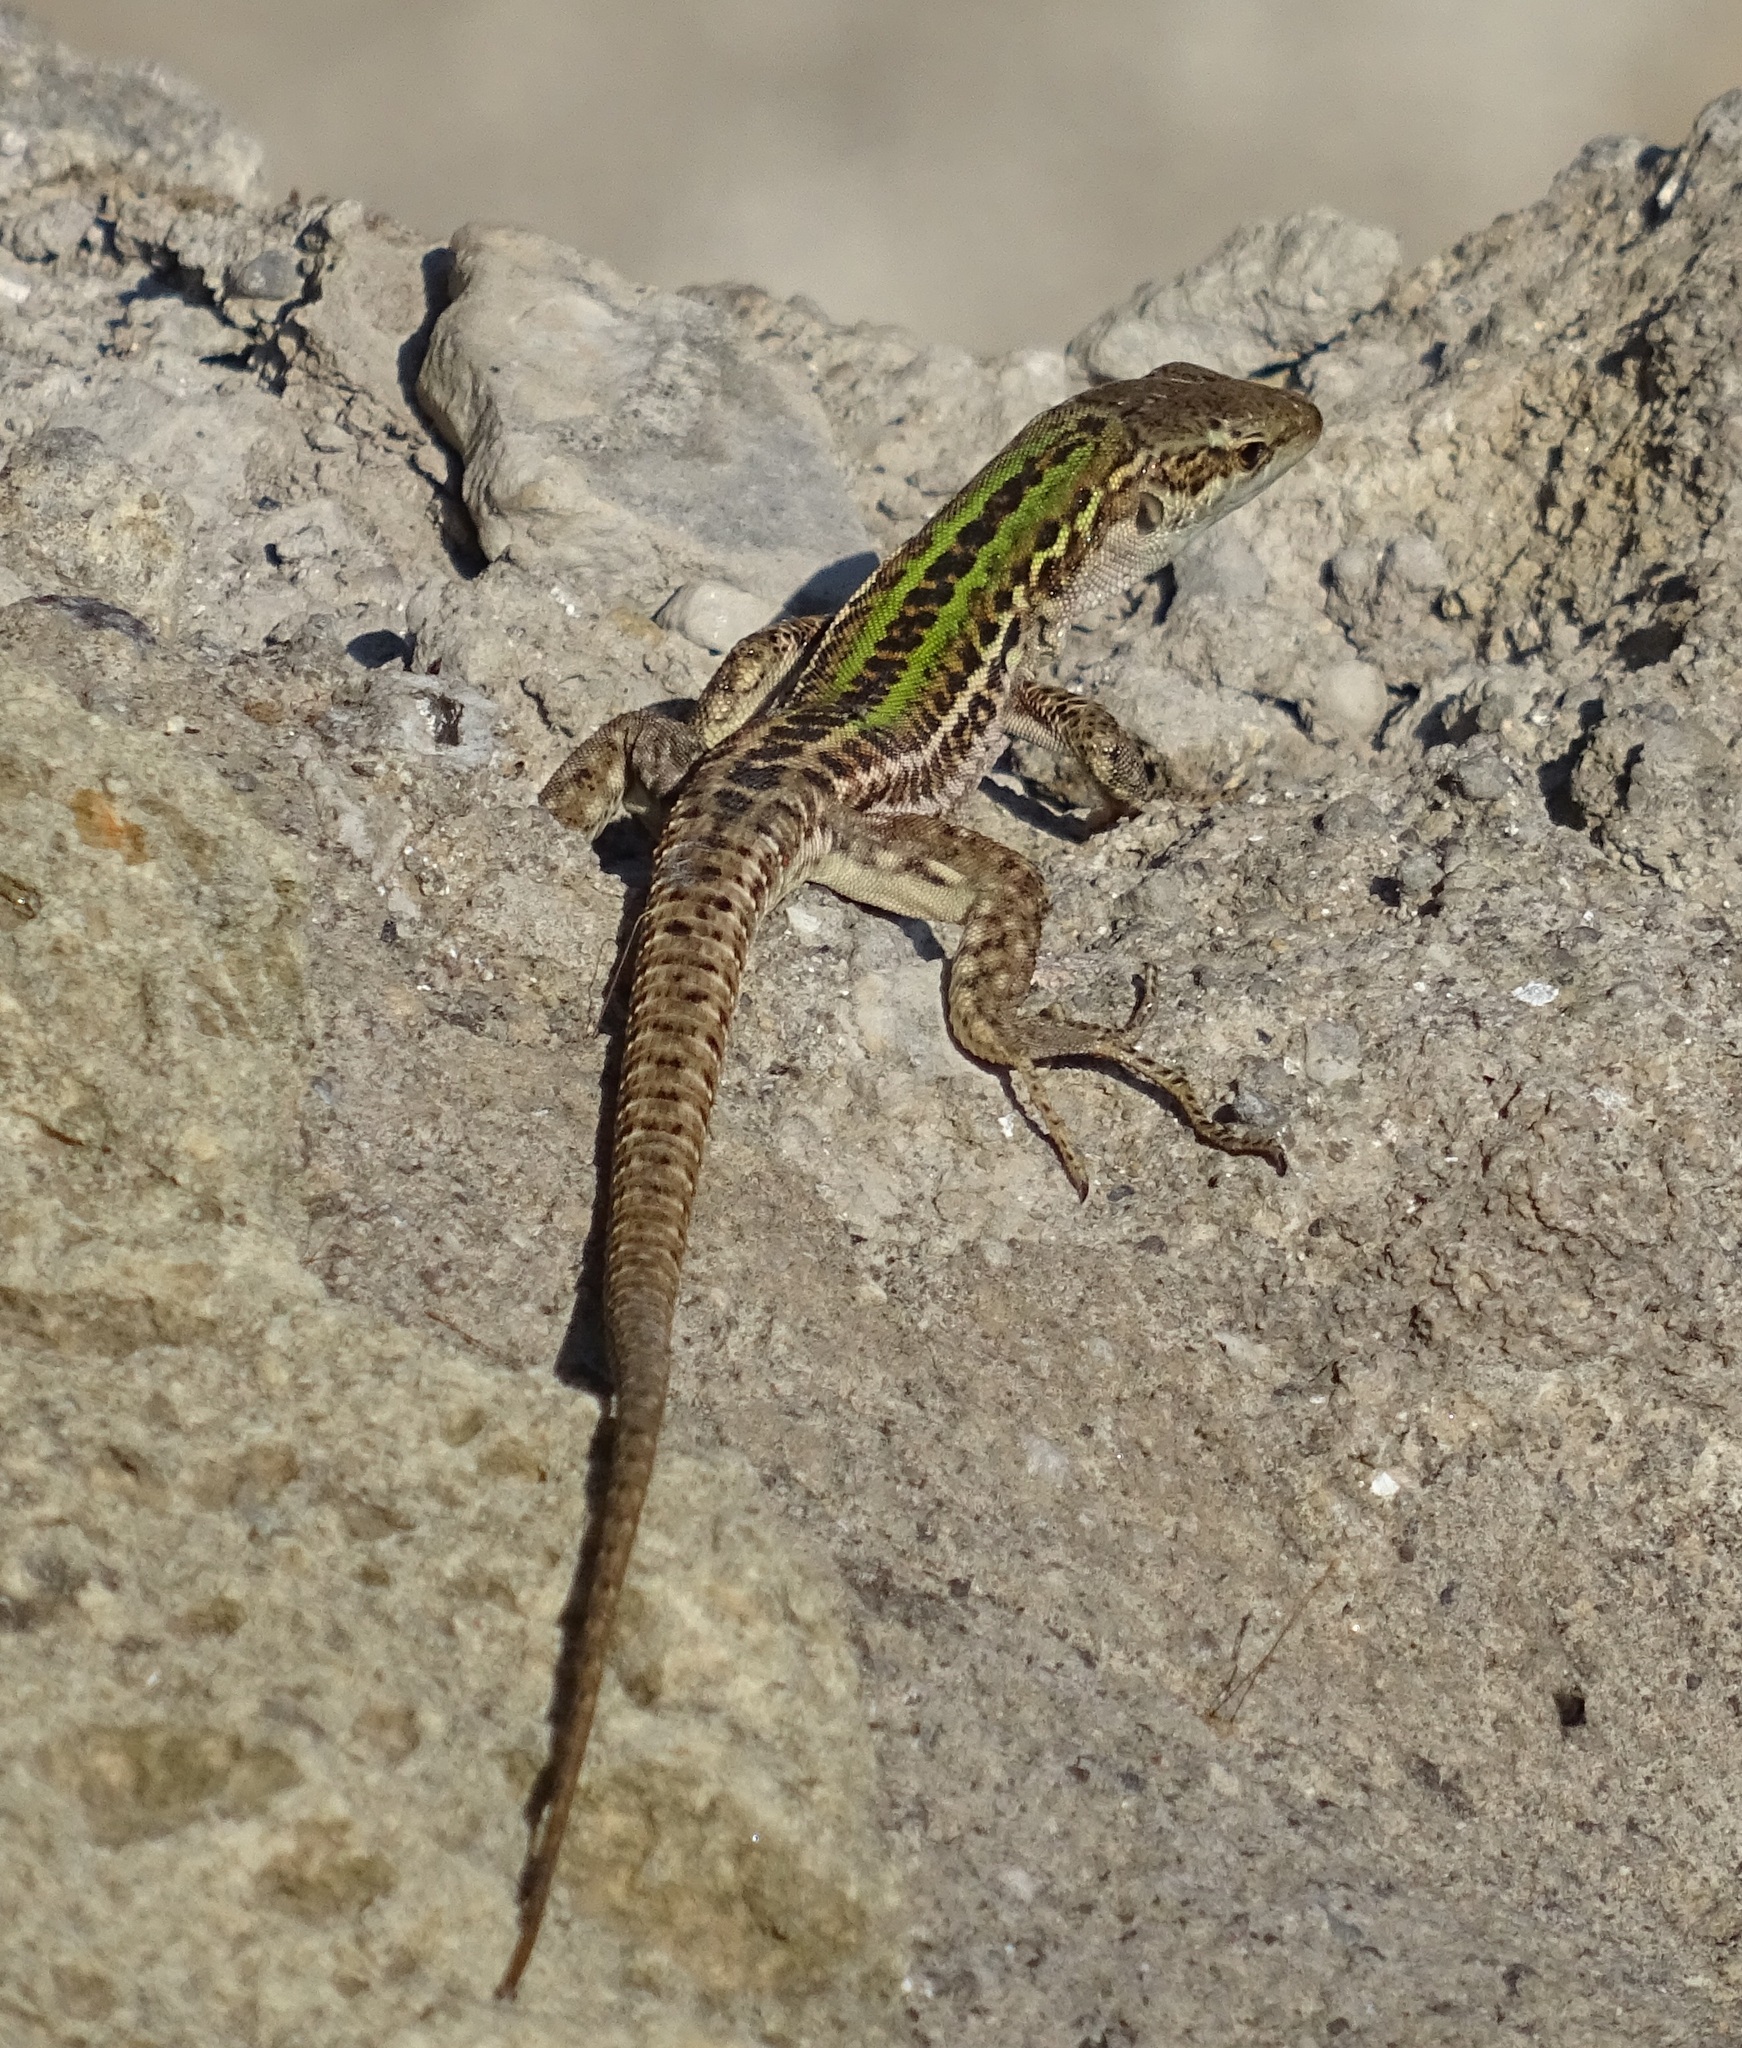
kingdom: Animalia
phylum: Chordata
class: Squamata
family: Lacertidae
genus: Podarcis
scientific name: Podarcis siculus
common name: Italian wall lizard
